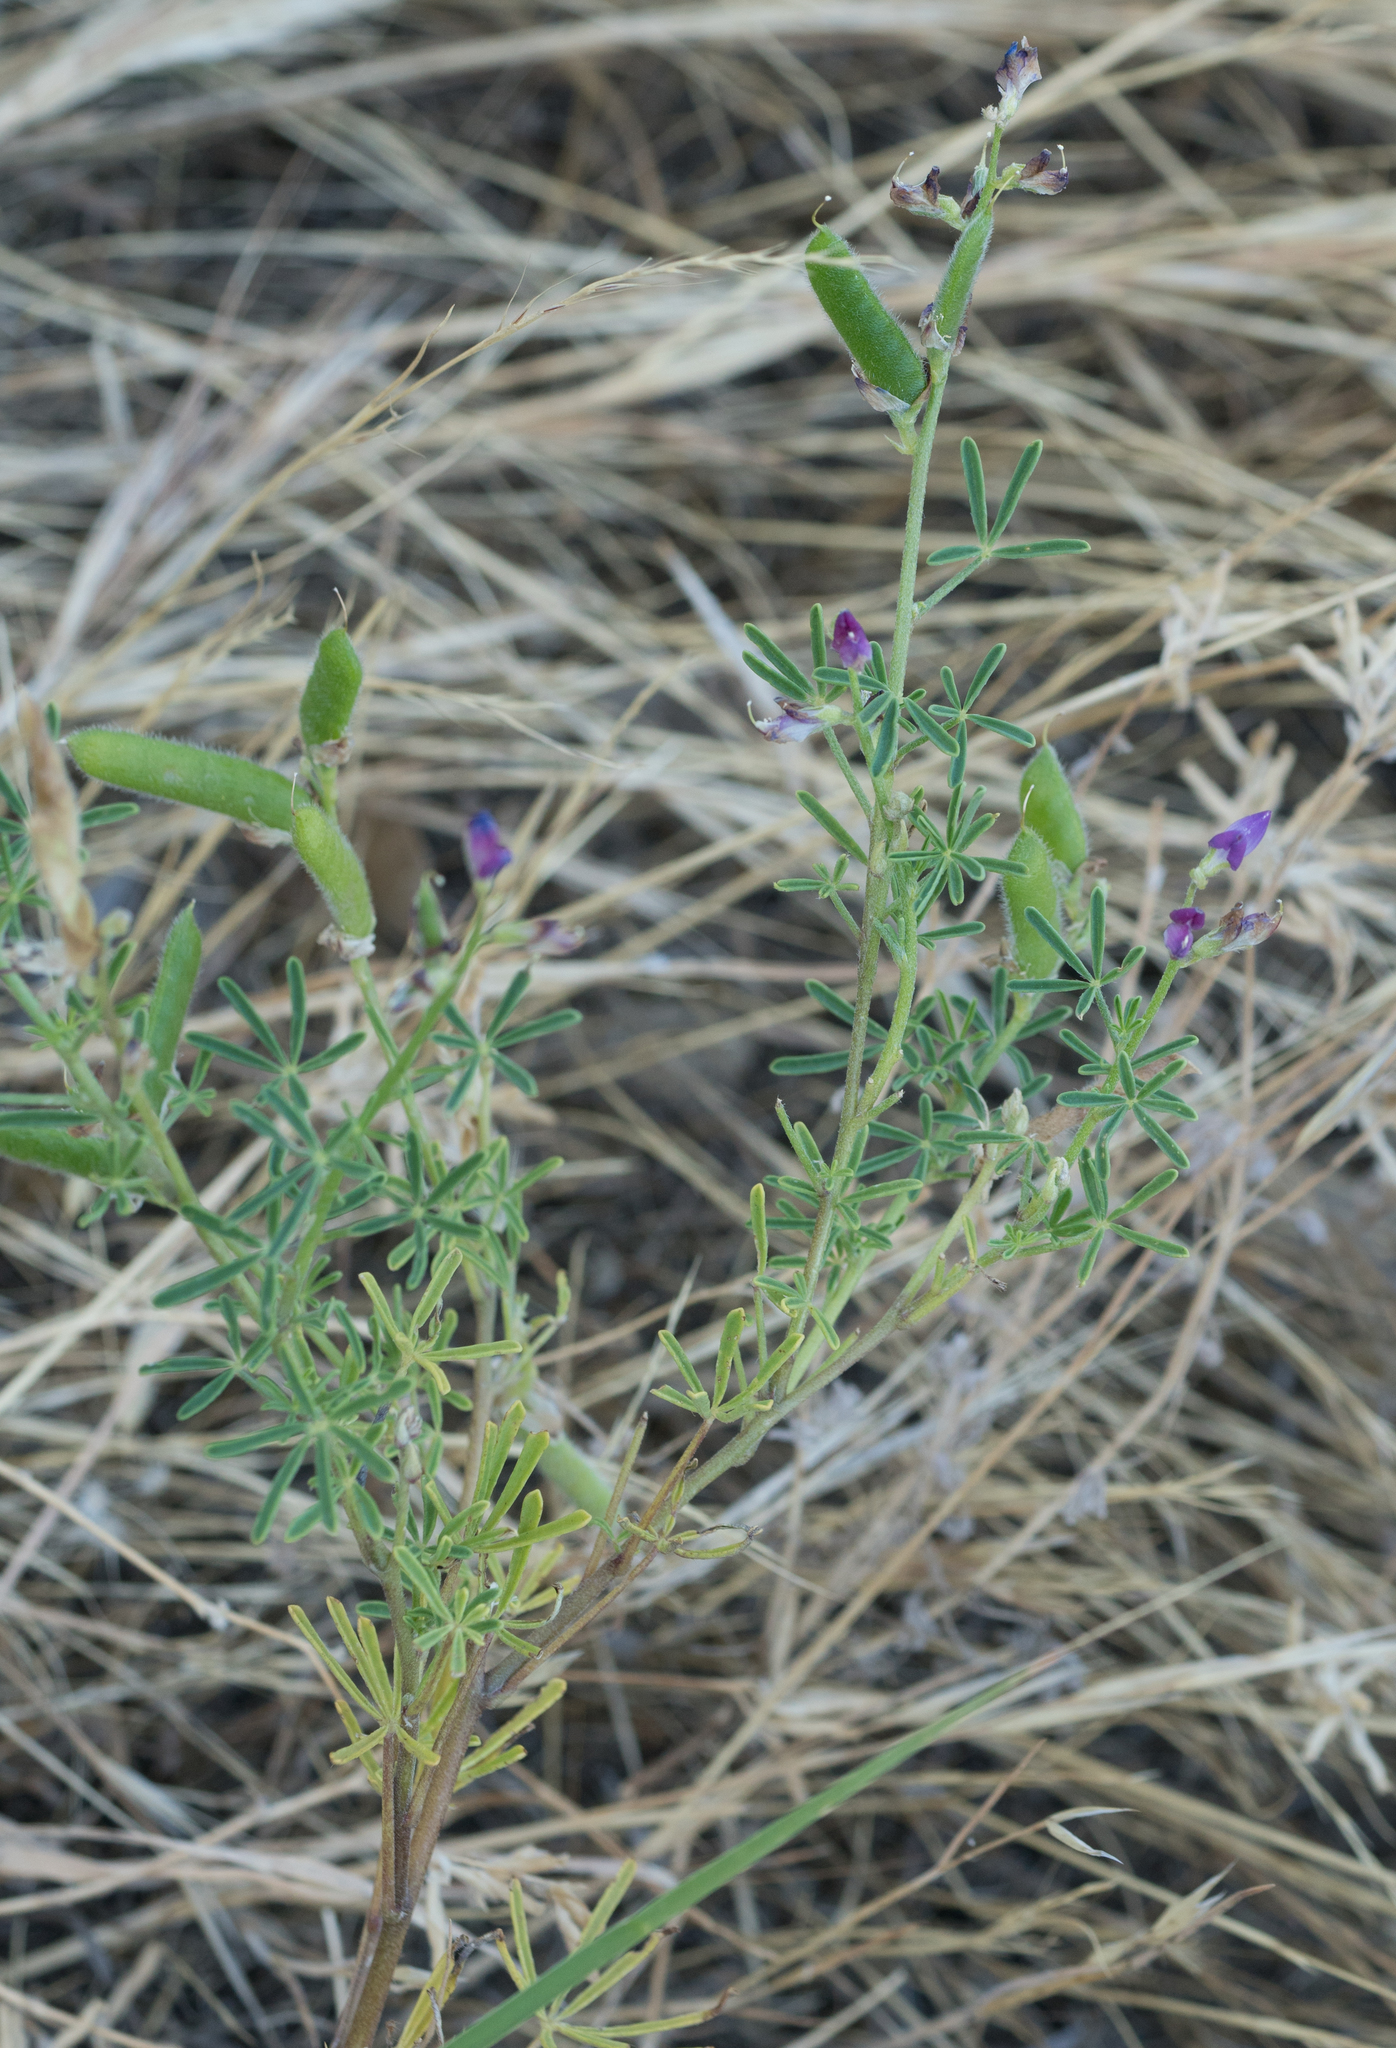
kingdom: Plantae
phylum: Tracheophyta
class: Magnoliopsida
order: Fabales
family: Fabaceae
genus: Lupinus
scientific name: Lupinus truncatus
